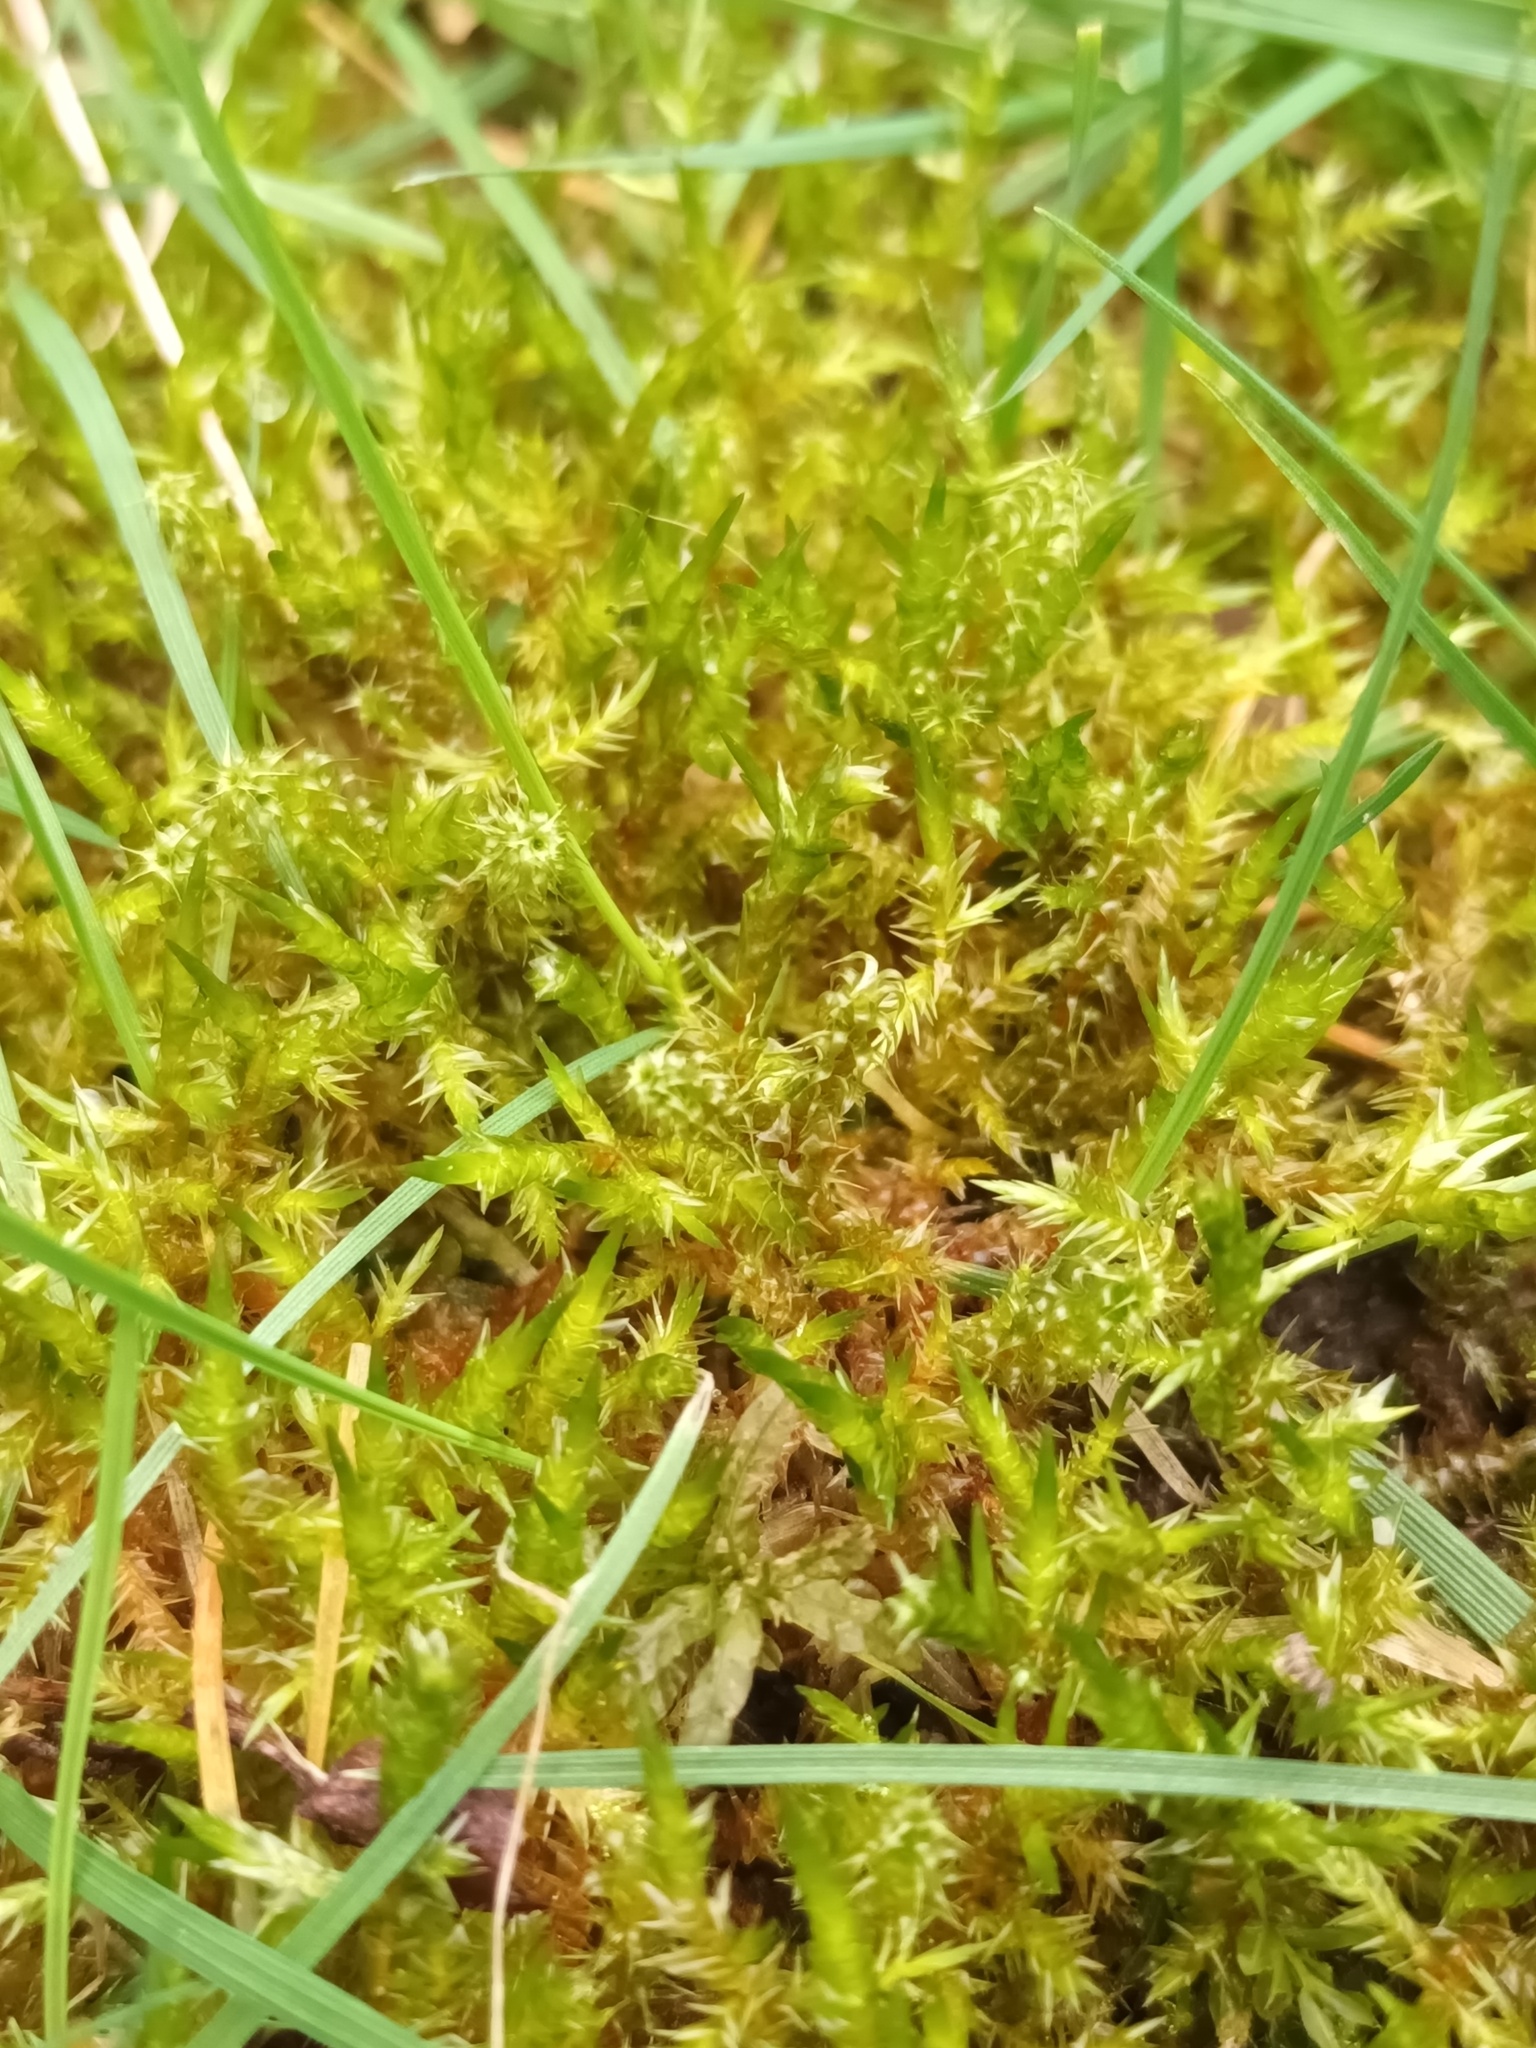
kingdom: Plantae
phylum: Bryophyta
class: Bryopsida
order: Hypnales
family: Hylocomiaceae
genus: Rhytidiadelphus
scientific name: Rhytidiadelphus squarrosus
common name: Springy turf-moss
